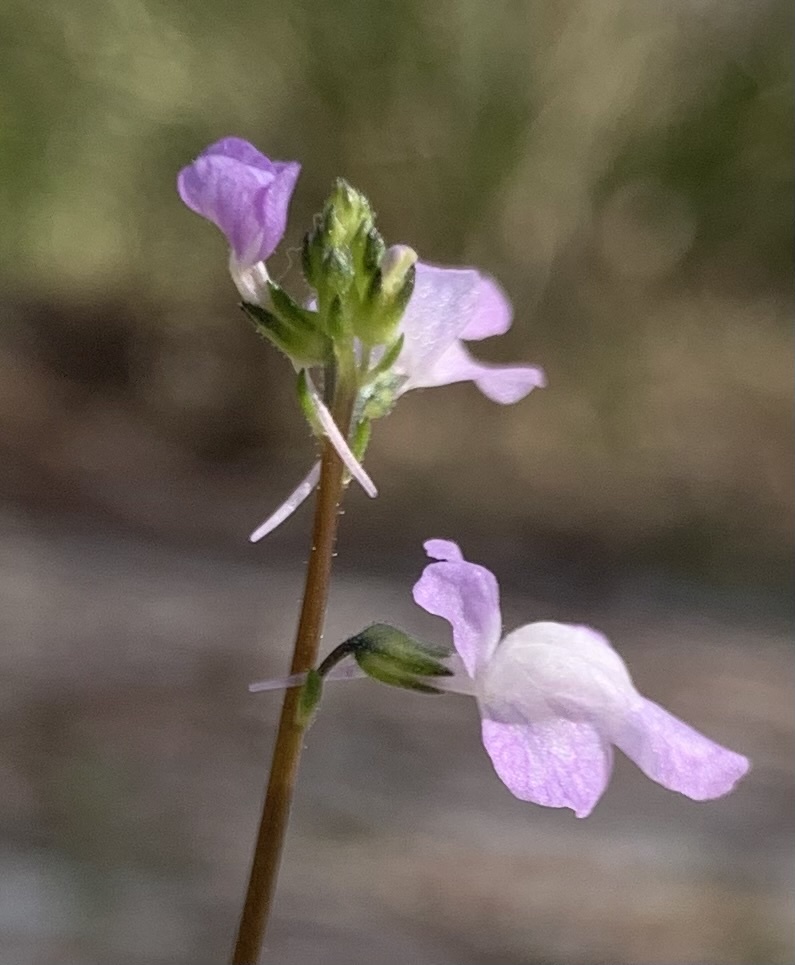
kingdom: Plantae
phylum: Tracheophyta
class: Magnoliopsida
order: Lamiales
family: Plantaginaceae
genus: Nuttallanthus
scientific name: Nuttallanthus canadensis
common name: Blue toadflax
